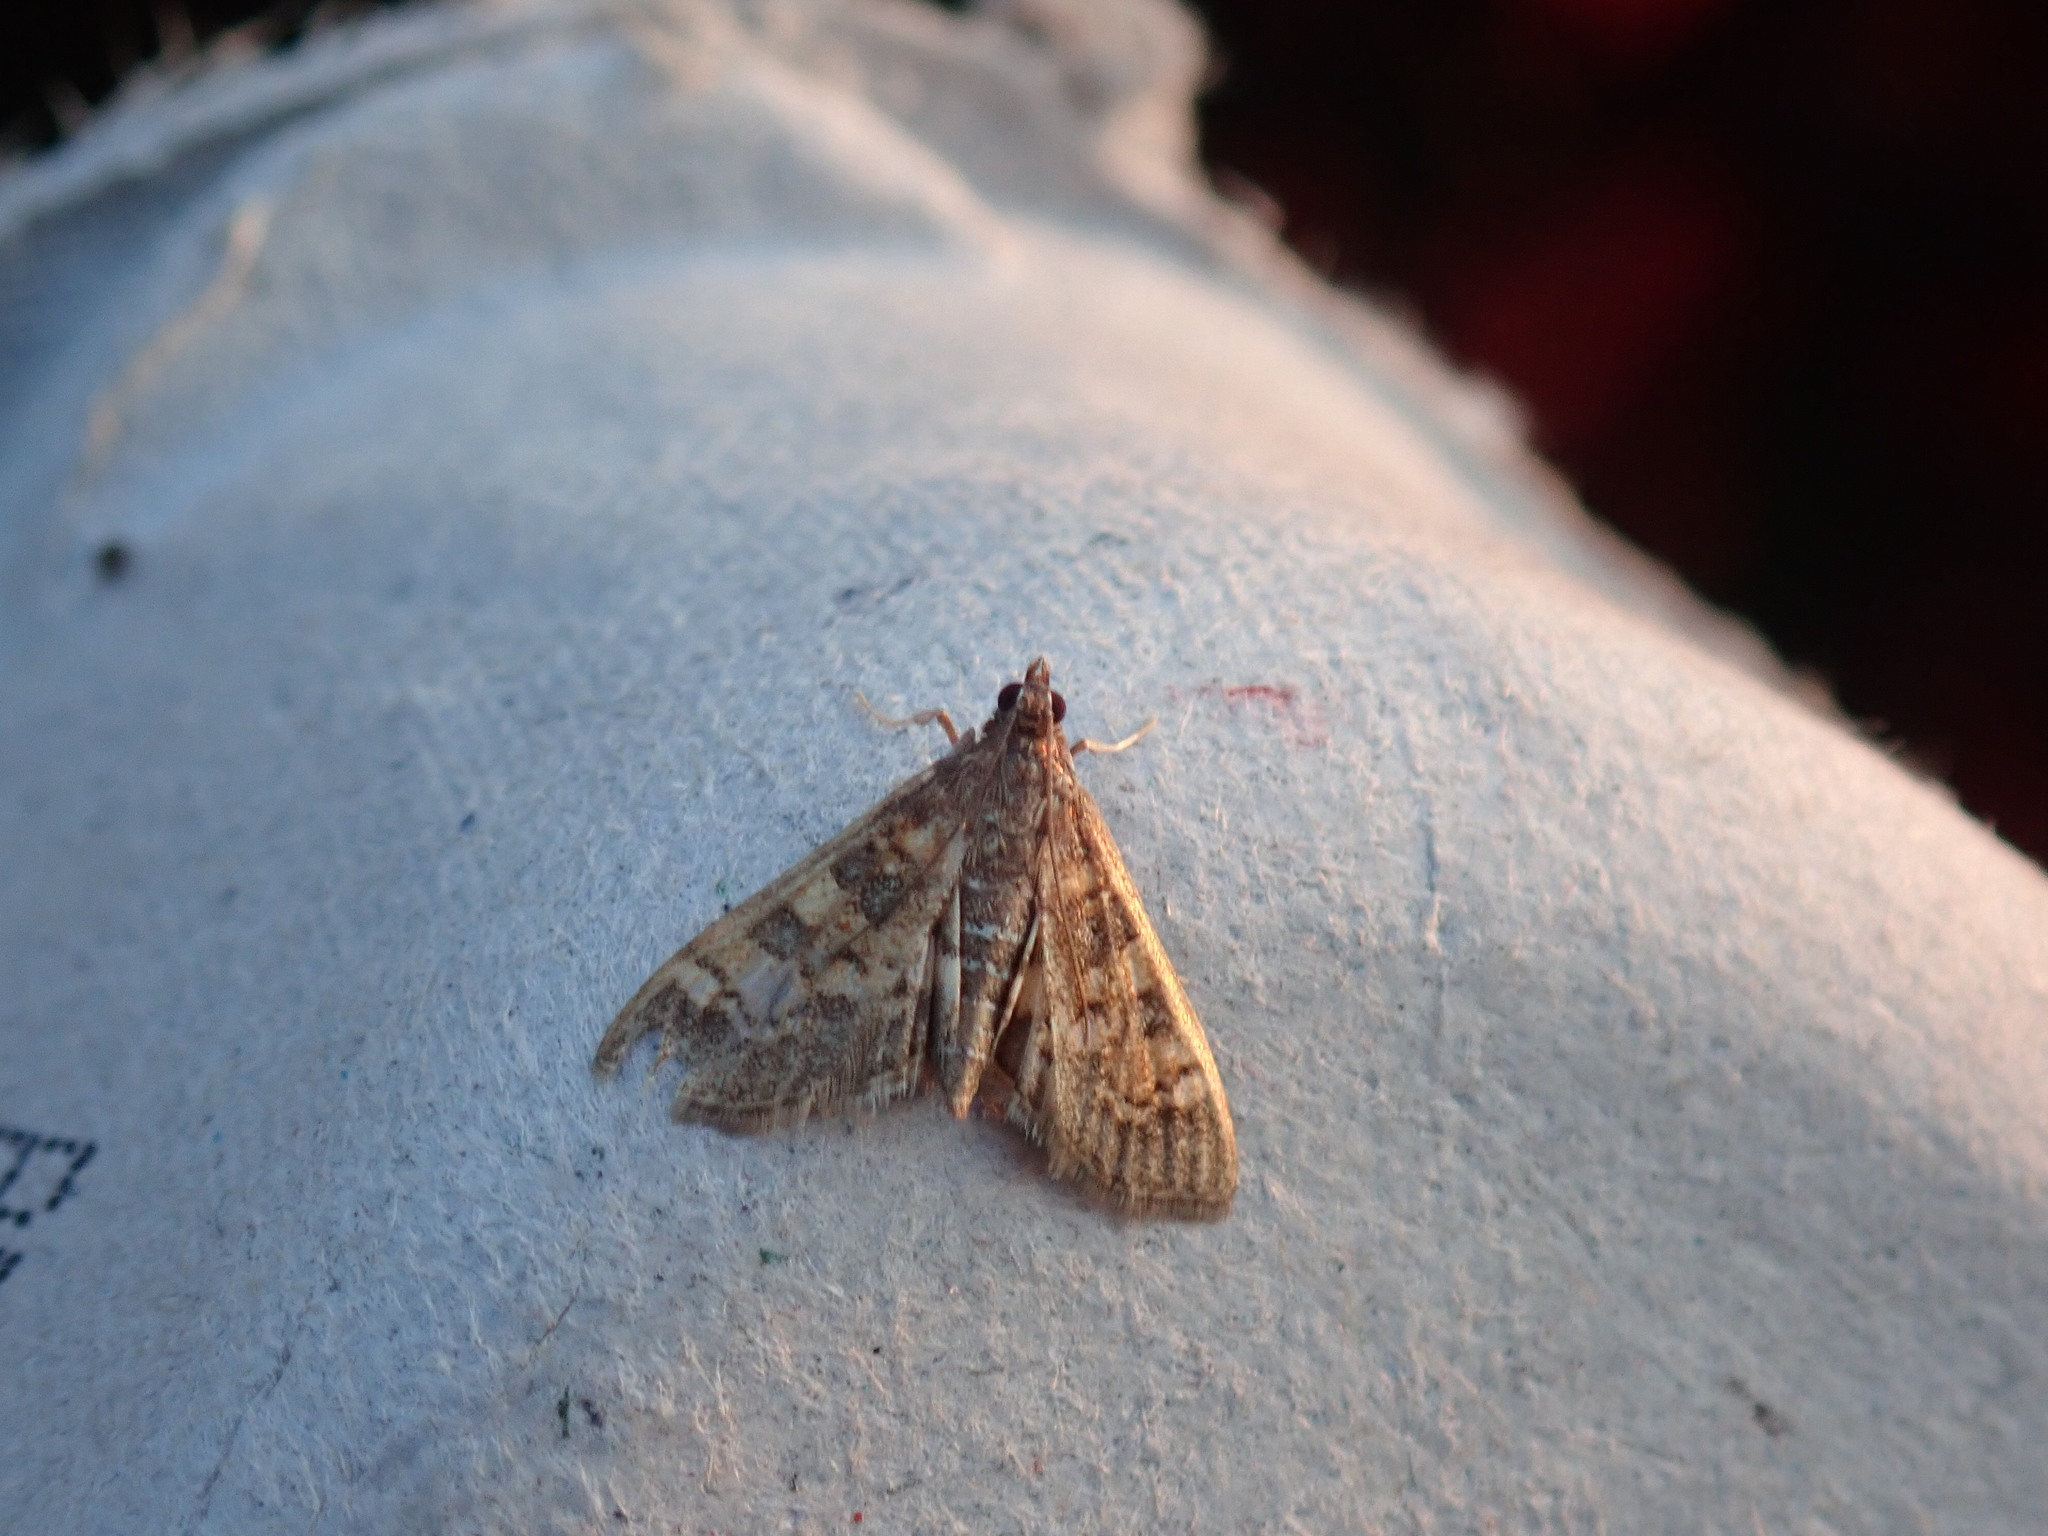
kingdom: Animalia
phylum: Arthropoda
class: Insecta
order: Lepidoptera
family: Crambidae
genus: Epipagis
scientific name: Epipagis adipaloides
